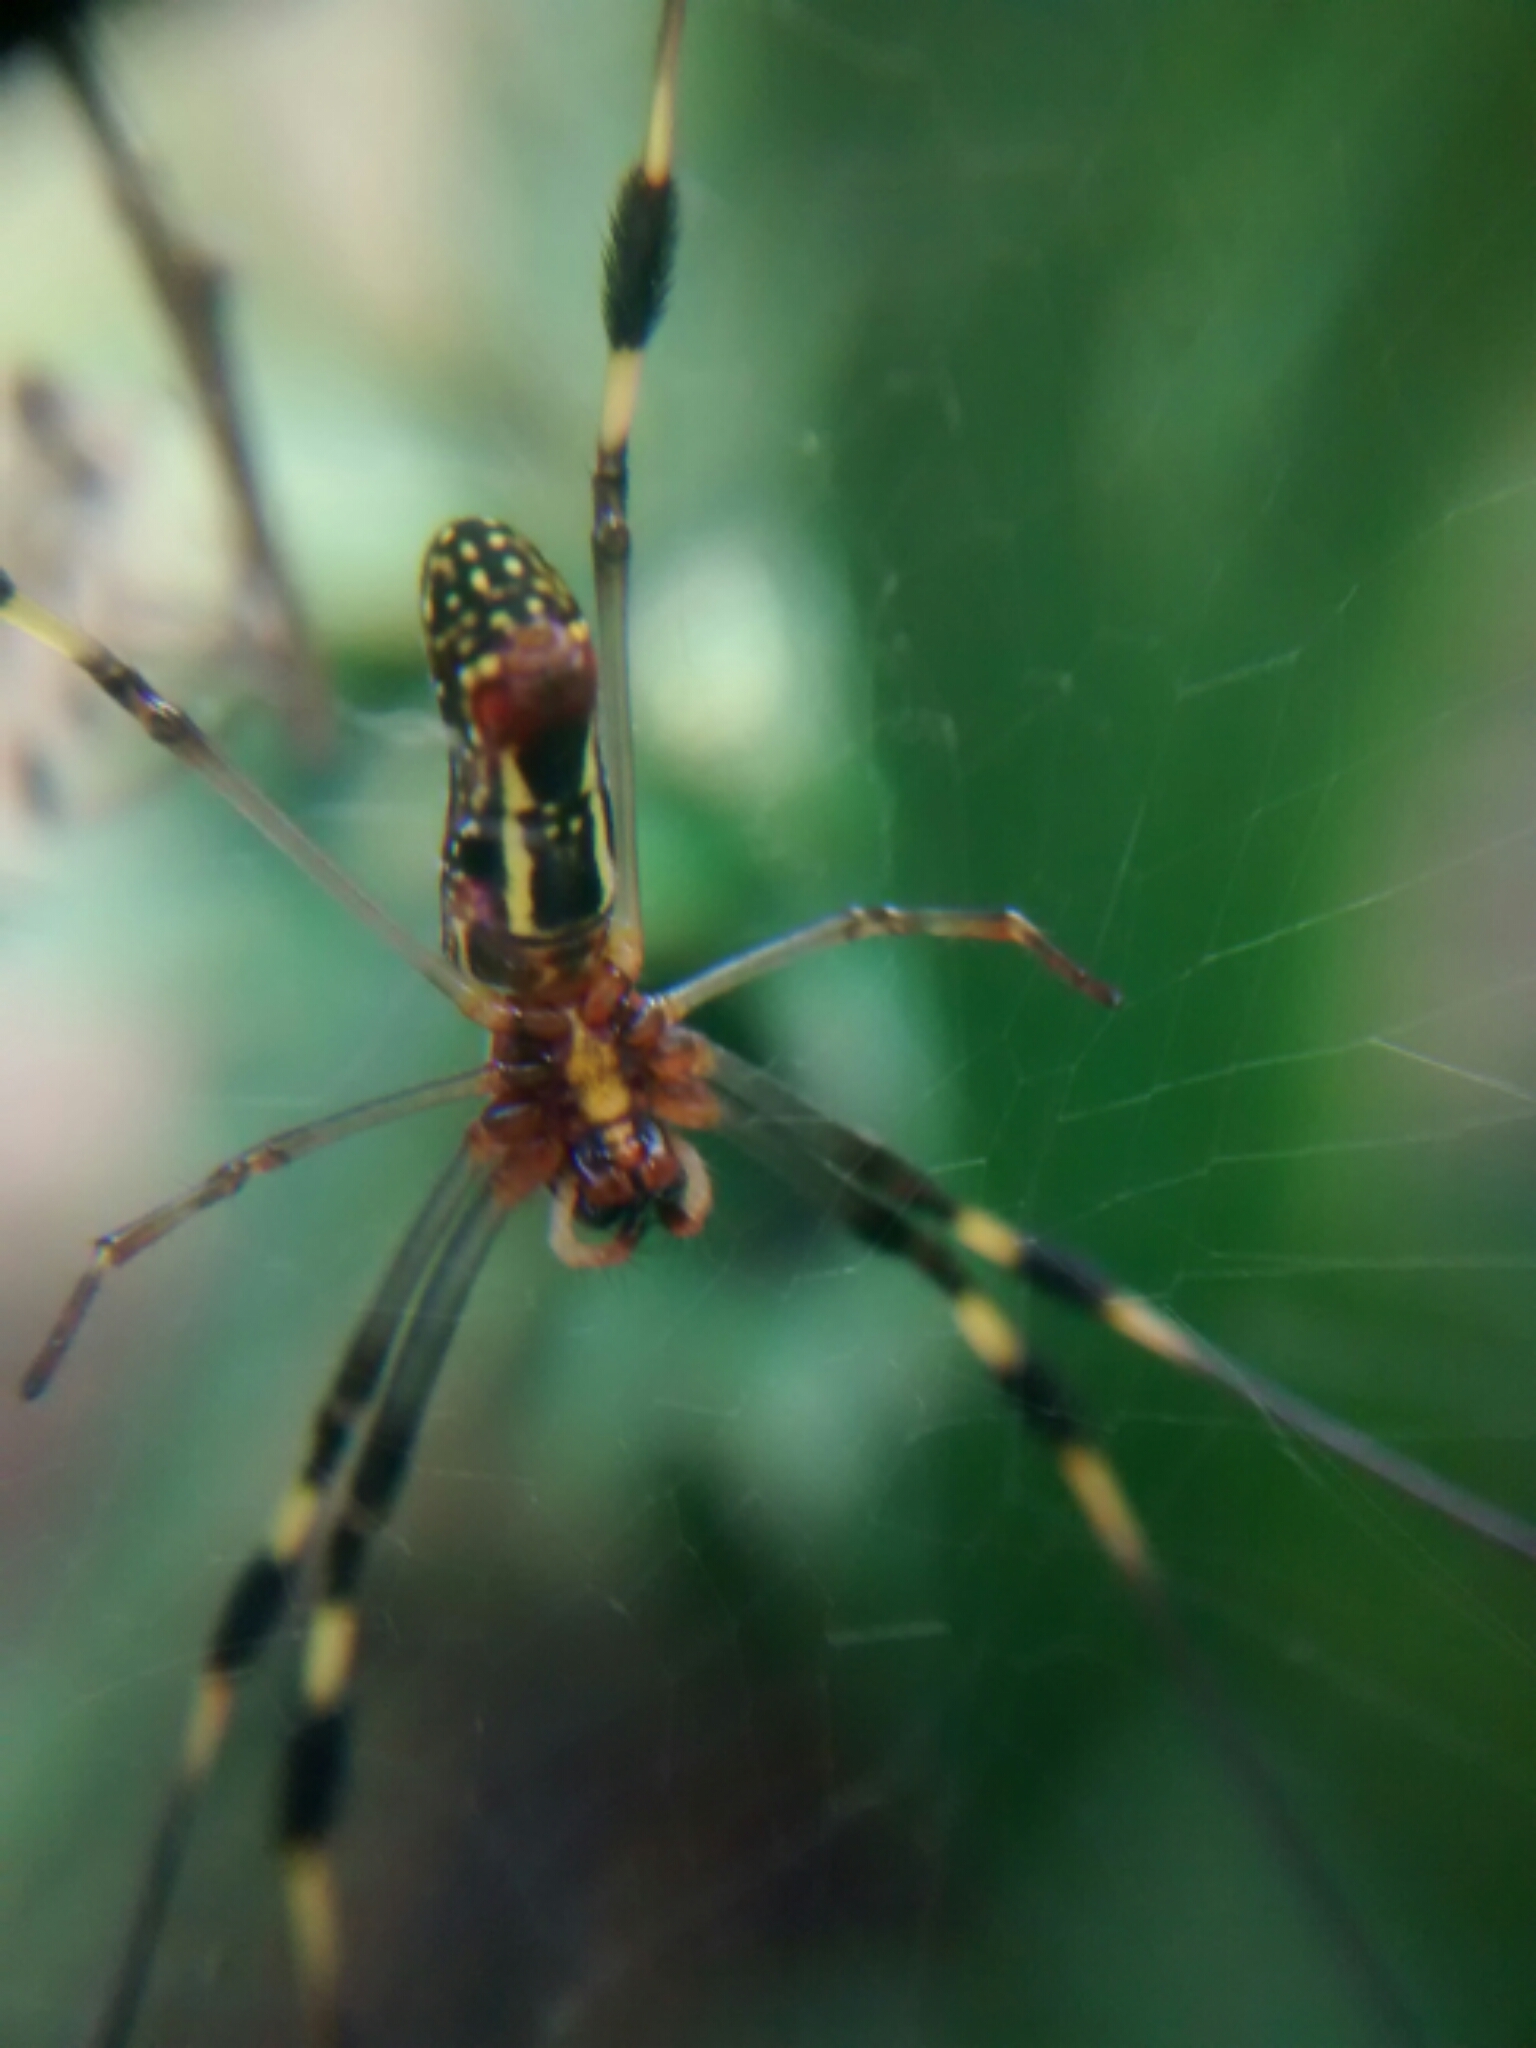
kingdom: Animalia
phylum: Arthropoda
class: Arachnida
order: Araneae
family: Araneidae
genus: Trichonephila
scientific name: Trichonephila clavipes
